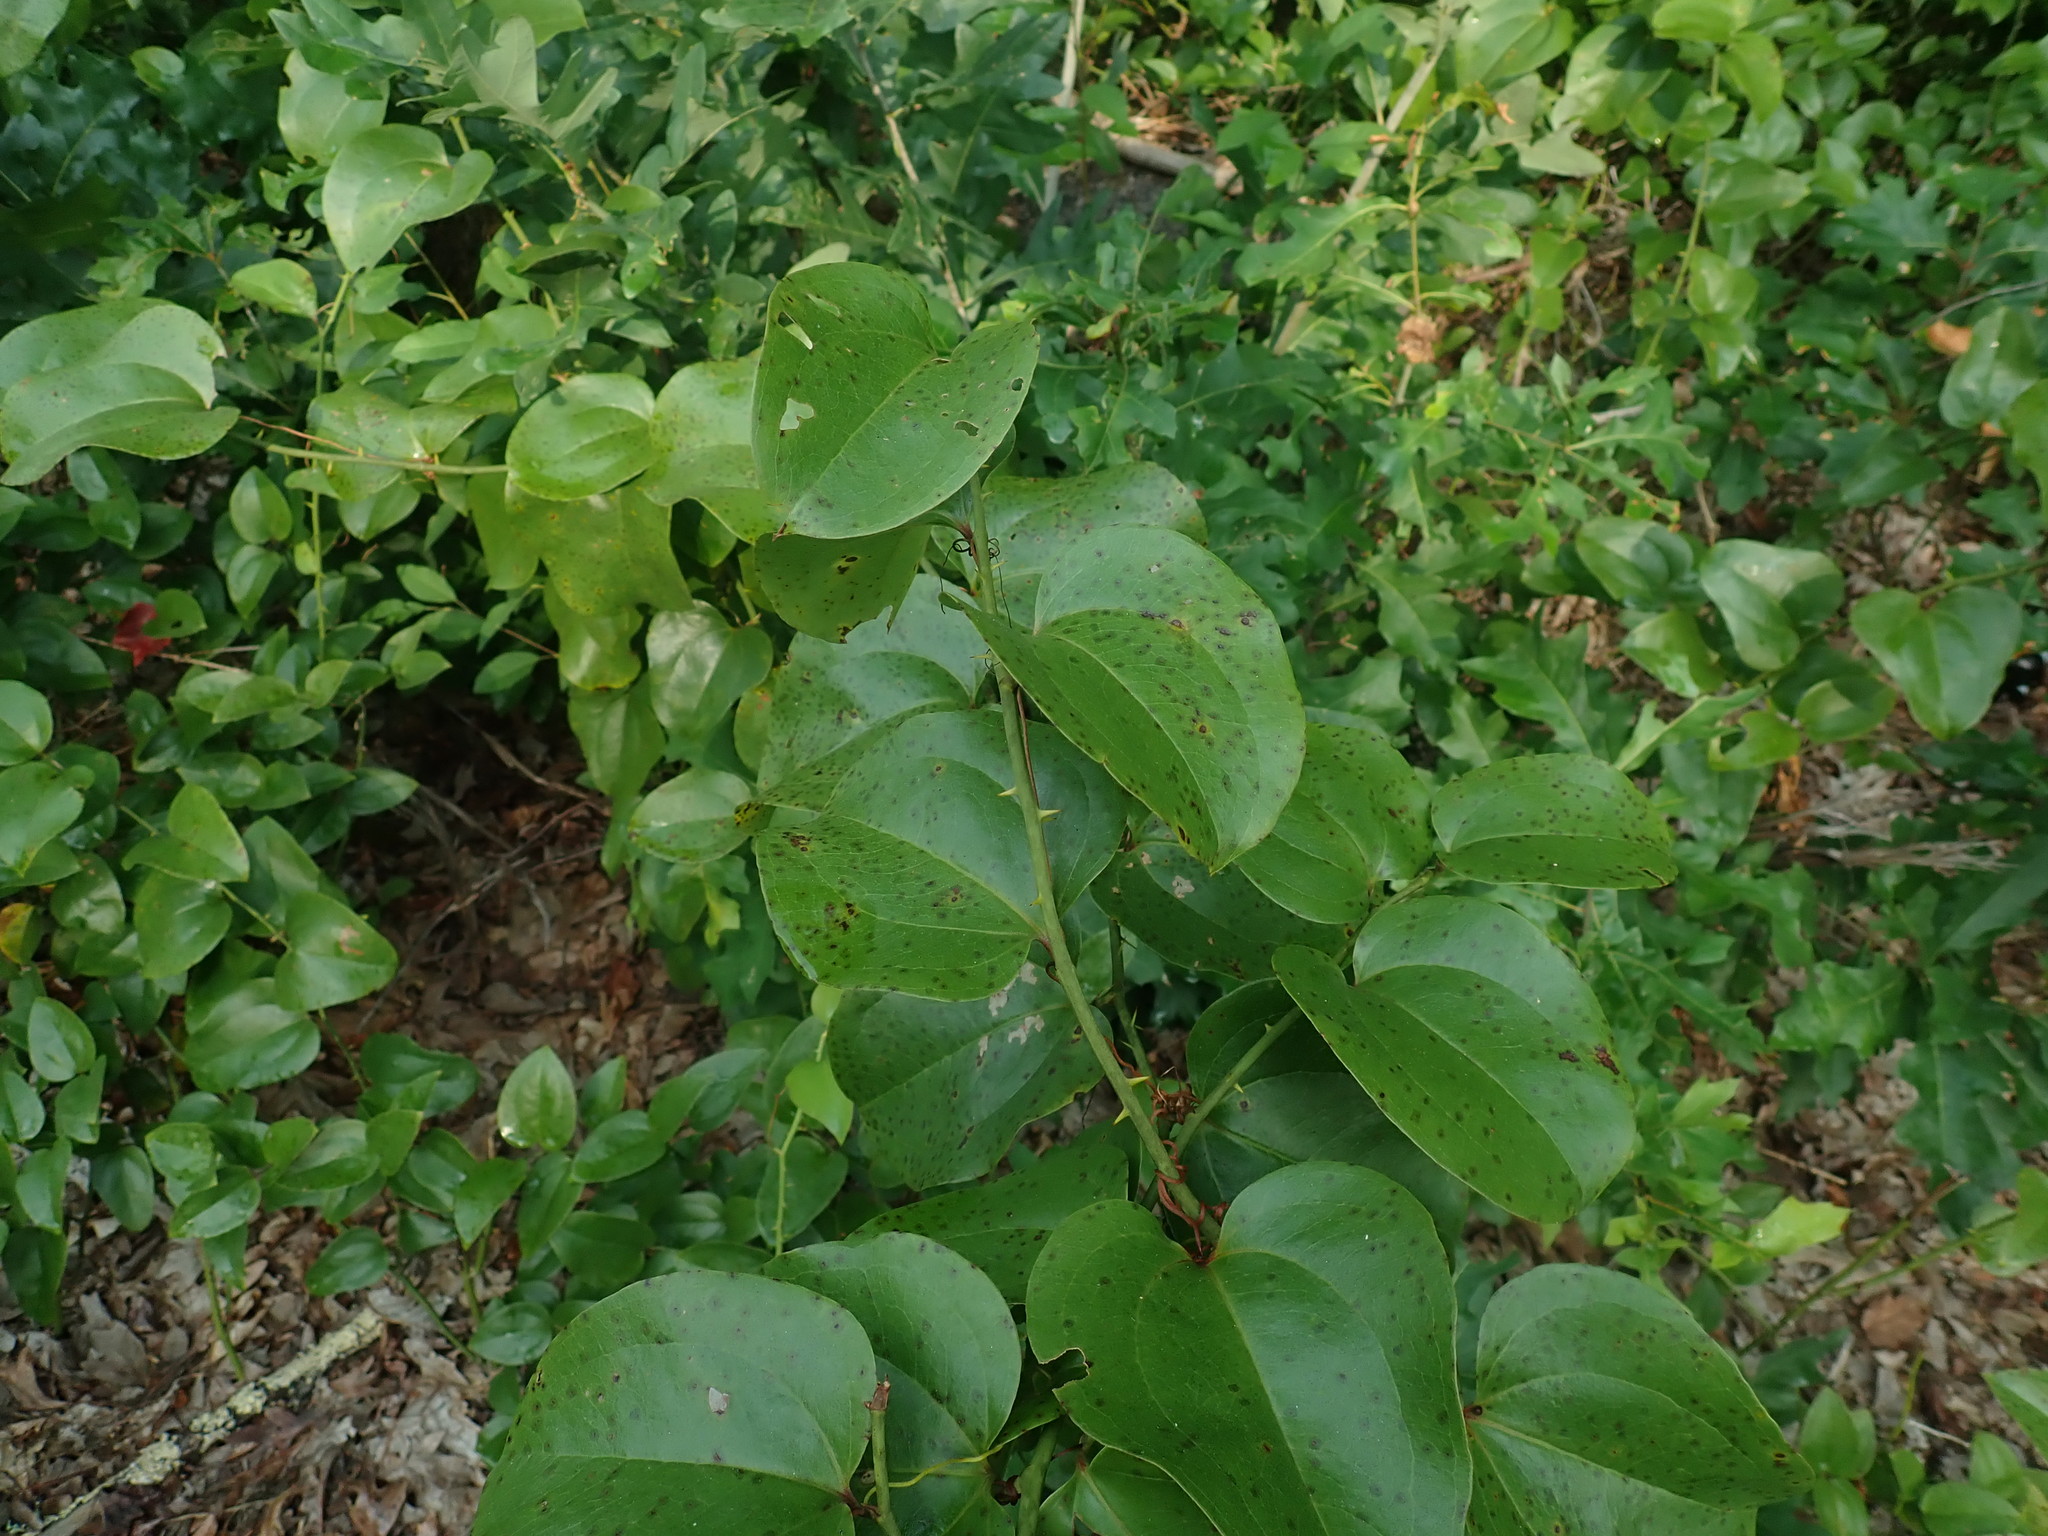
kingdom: Plantae
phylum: Tracheophyta
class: Liliopsida
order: Liliales
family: Smilacaceae
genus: Smilax
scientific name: Smilax rotundifolia
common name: Bullbriar
